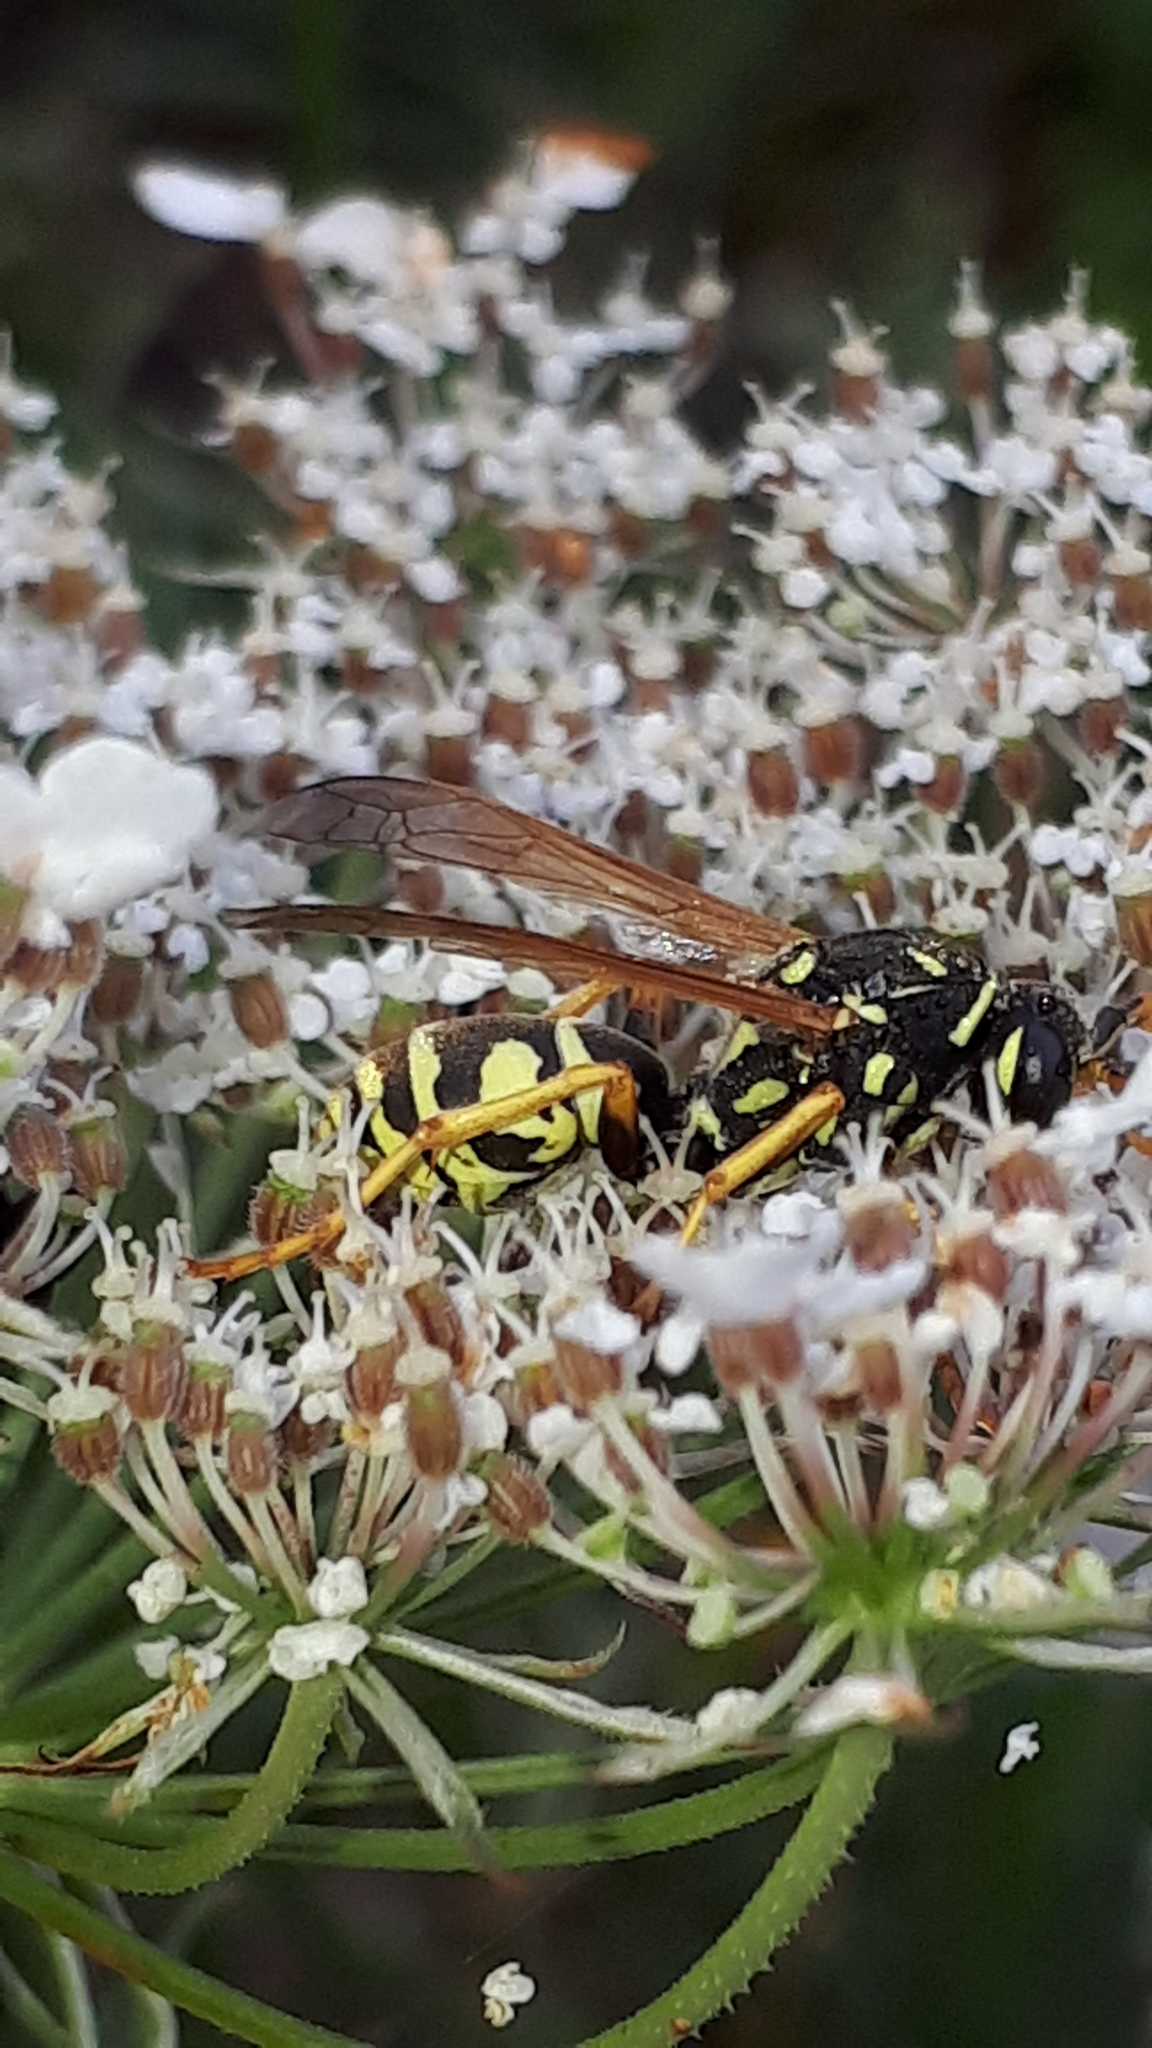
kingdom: Animalia
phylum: Arthropoda
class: Insecta
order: Hymenoptera
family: Eumenidae
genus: Polistes
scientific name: Polistes dominula
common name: Paper wasp
